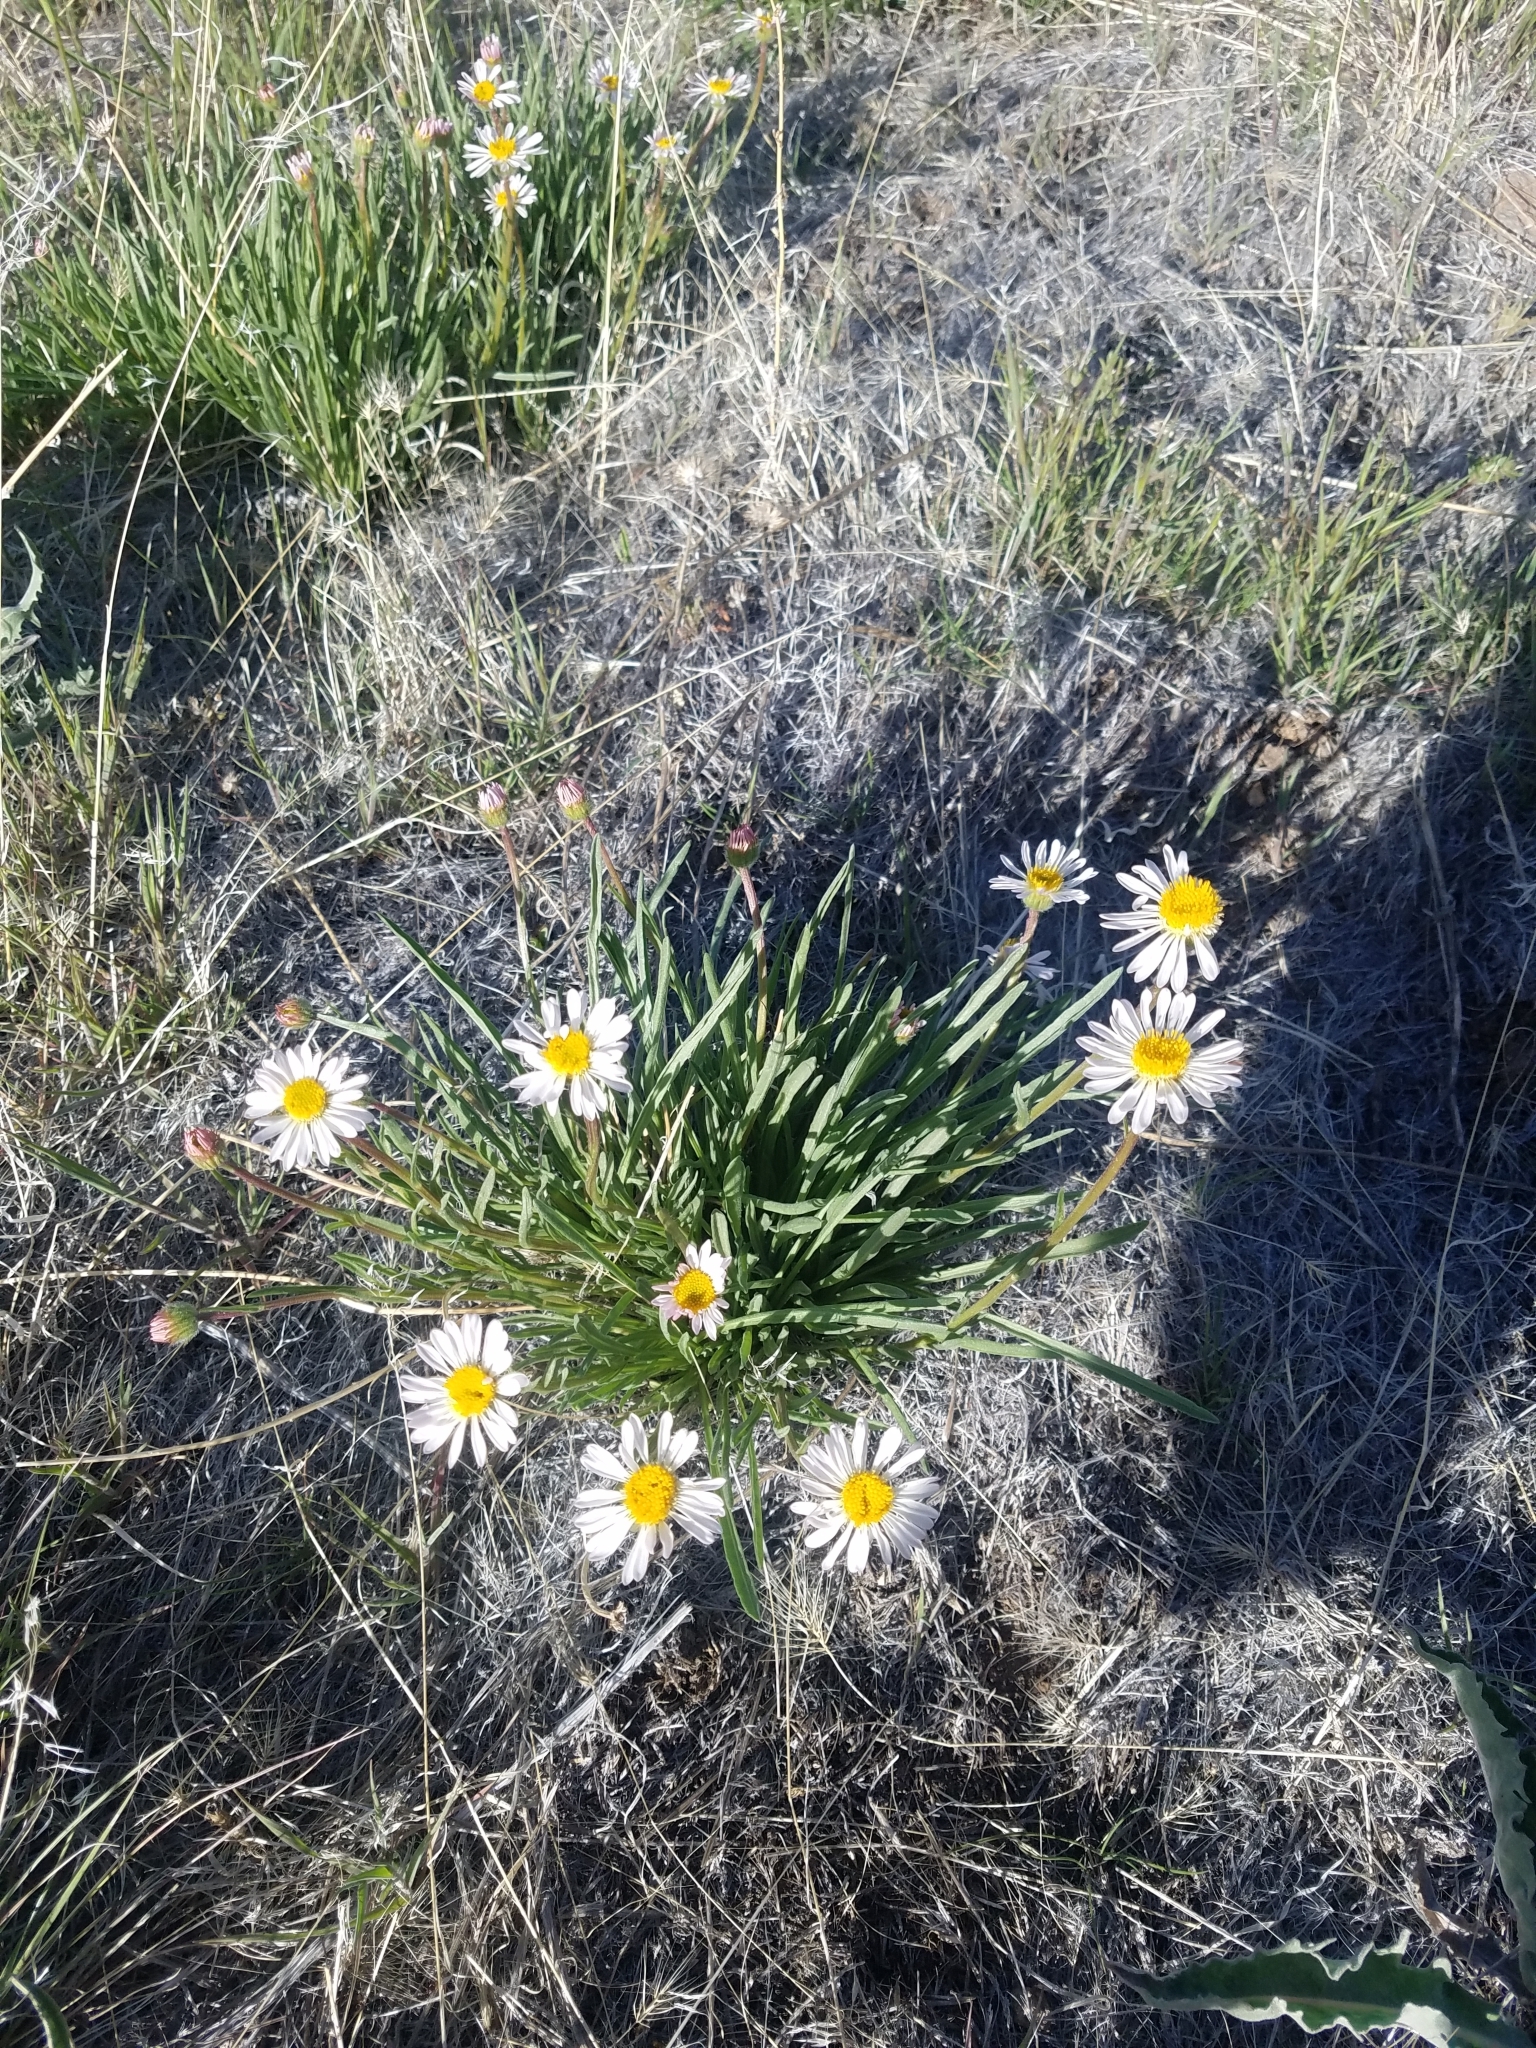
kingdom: Plantae
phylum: Tracheophyta
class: Magnoliopsida
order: Asterales
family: Asteraceae
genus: Erigeron
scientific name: Erigeron eatonii
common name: Eaton's fleabane
